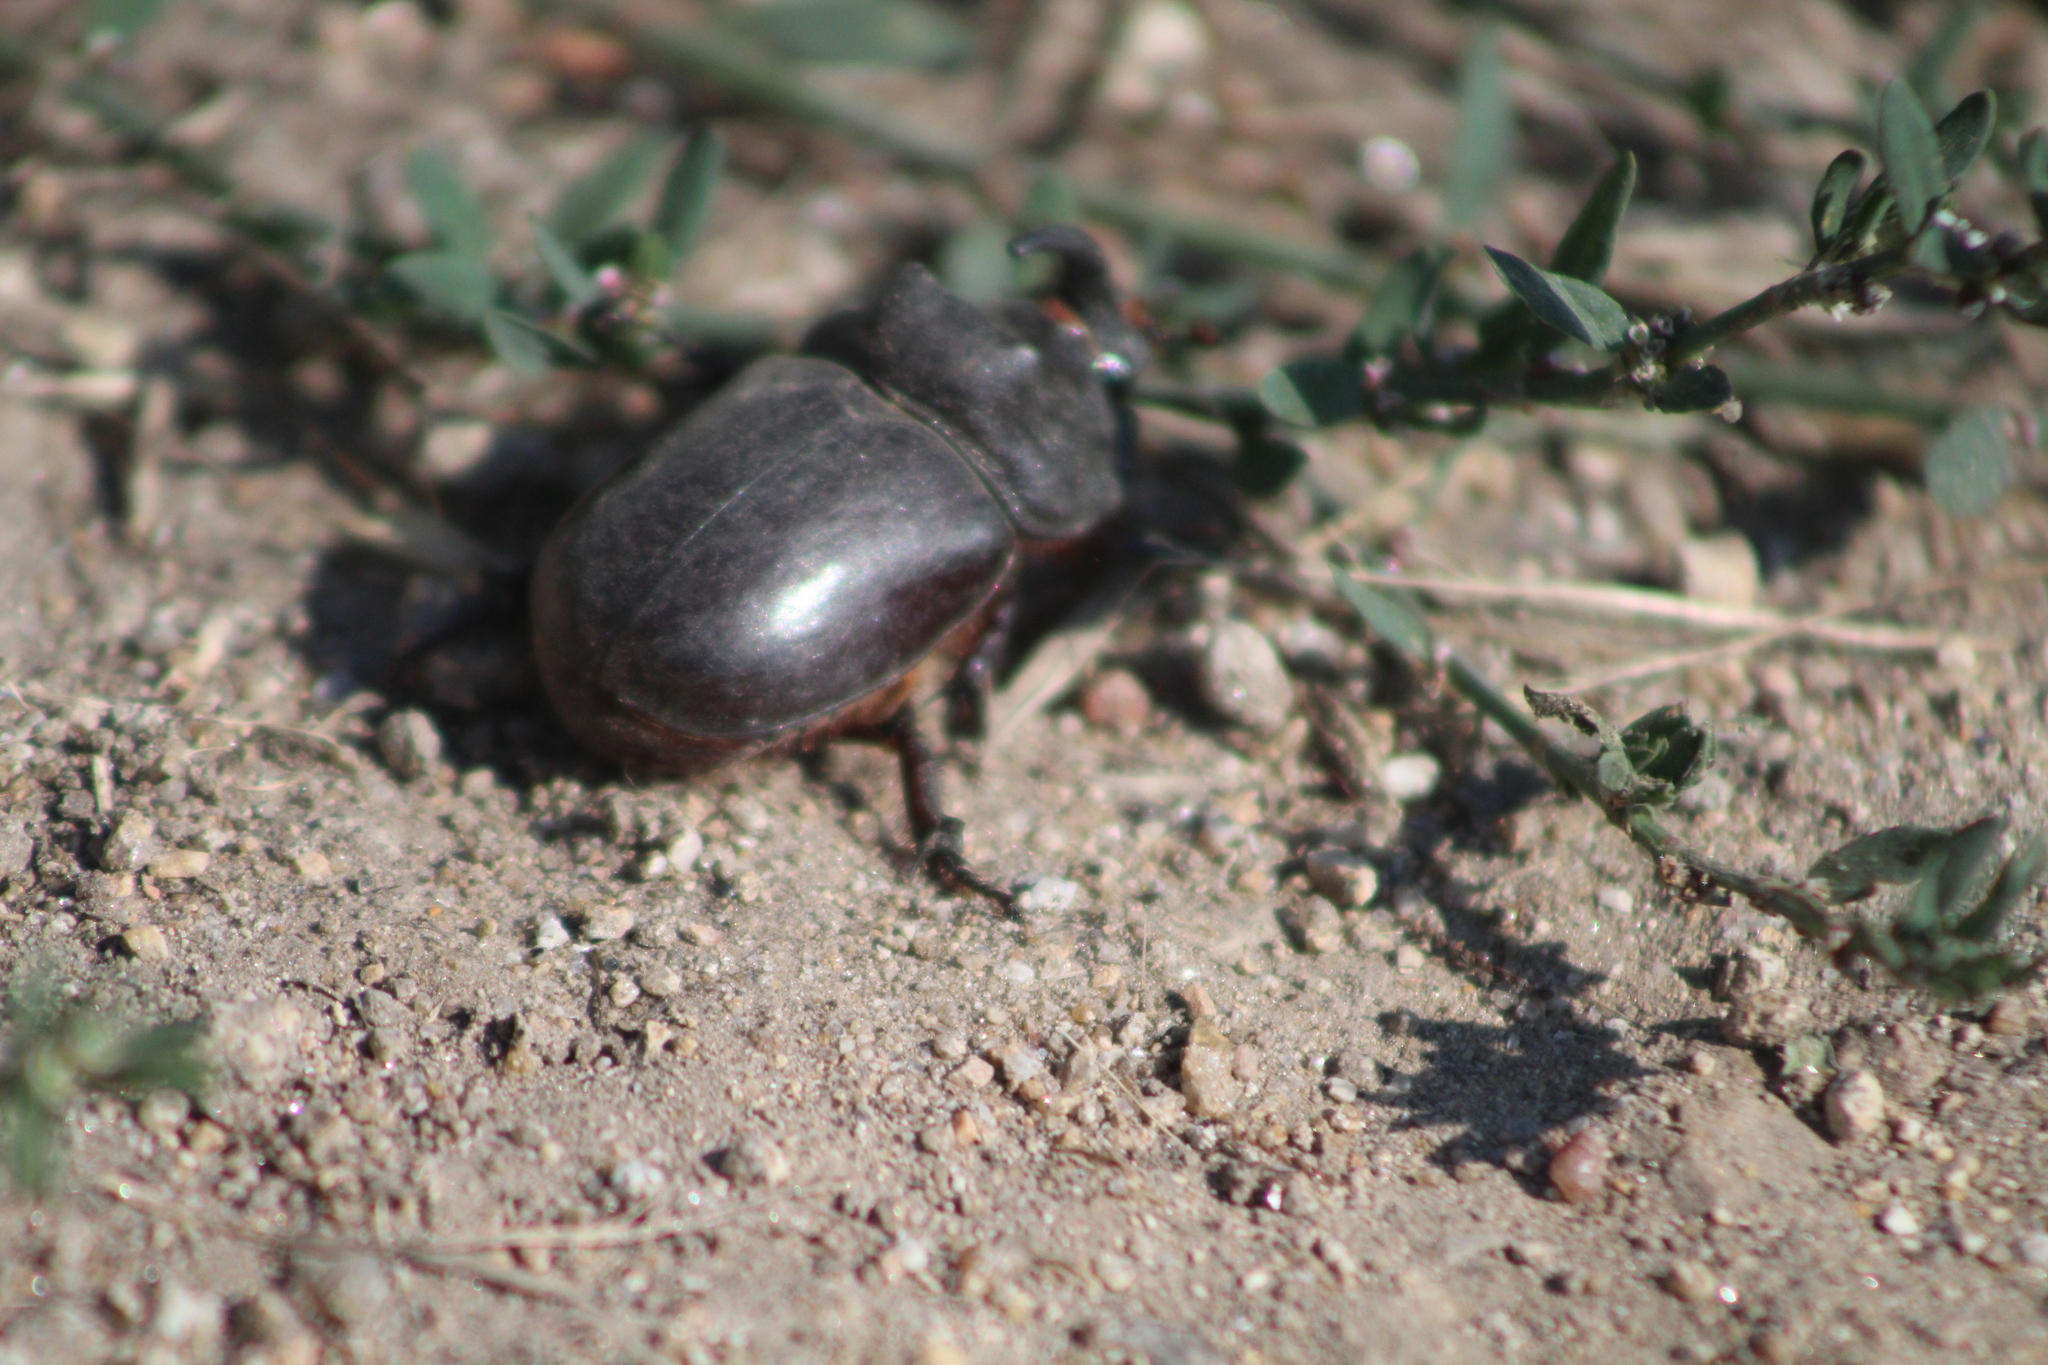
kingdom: Animalia
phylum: Arthropoda
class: Insecta
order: Coleoptera
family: Scarabaeidae
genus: Oryctes
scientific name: Oryctes nasicornis
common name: European rhinoceros beetle
